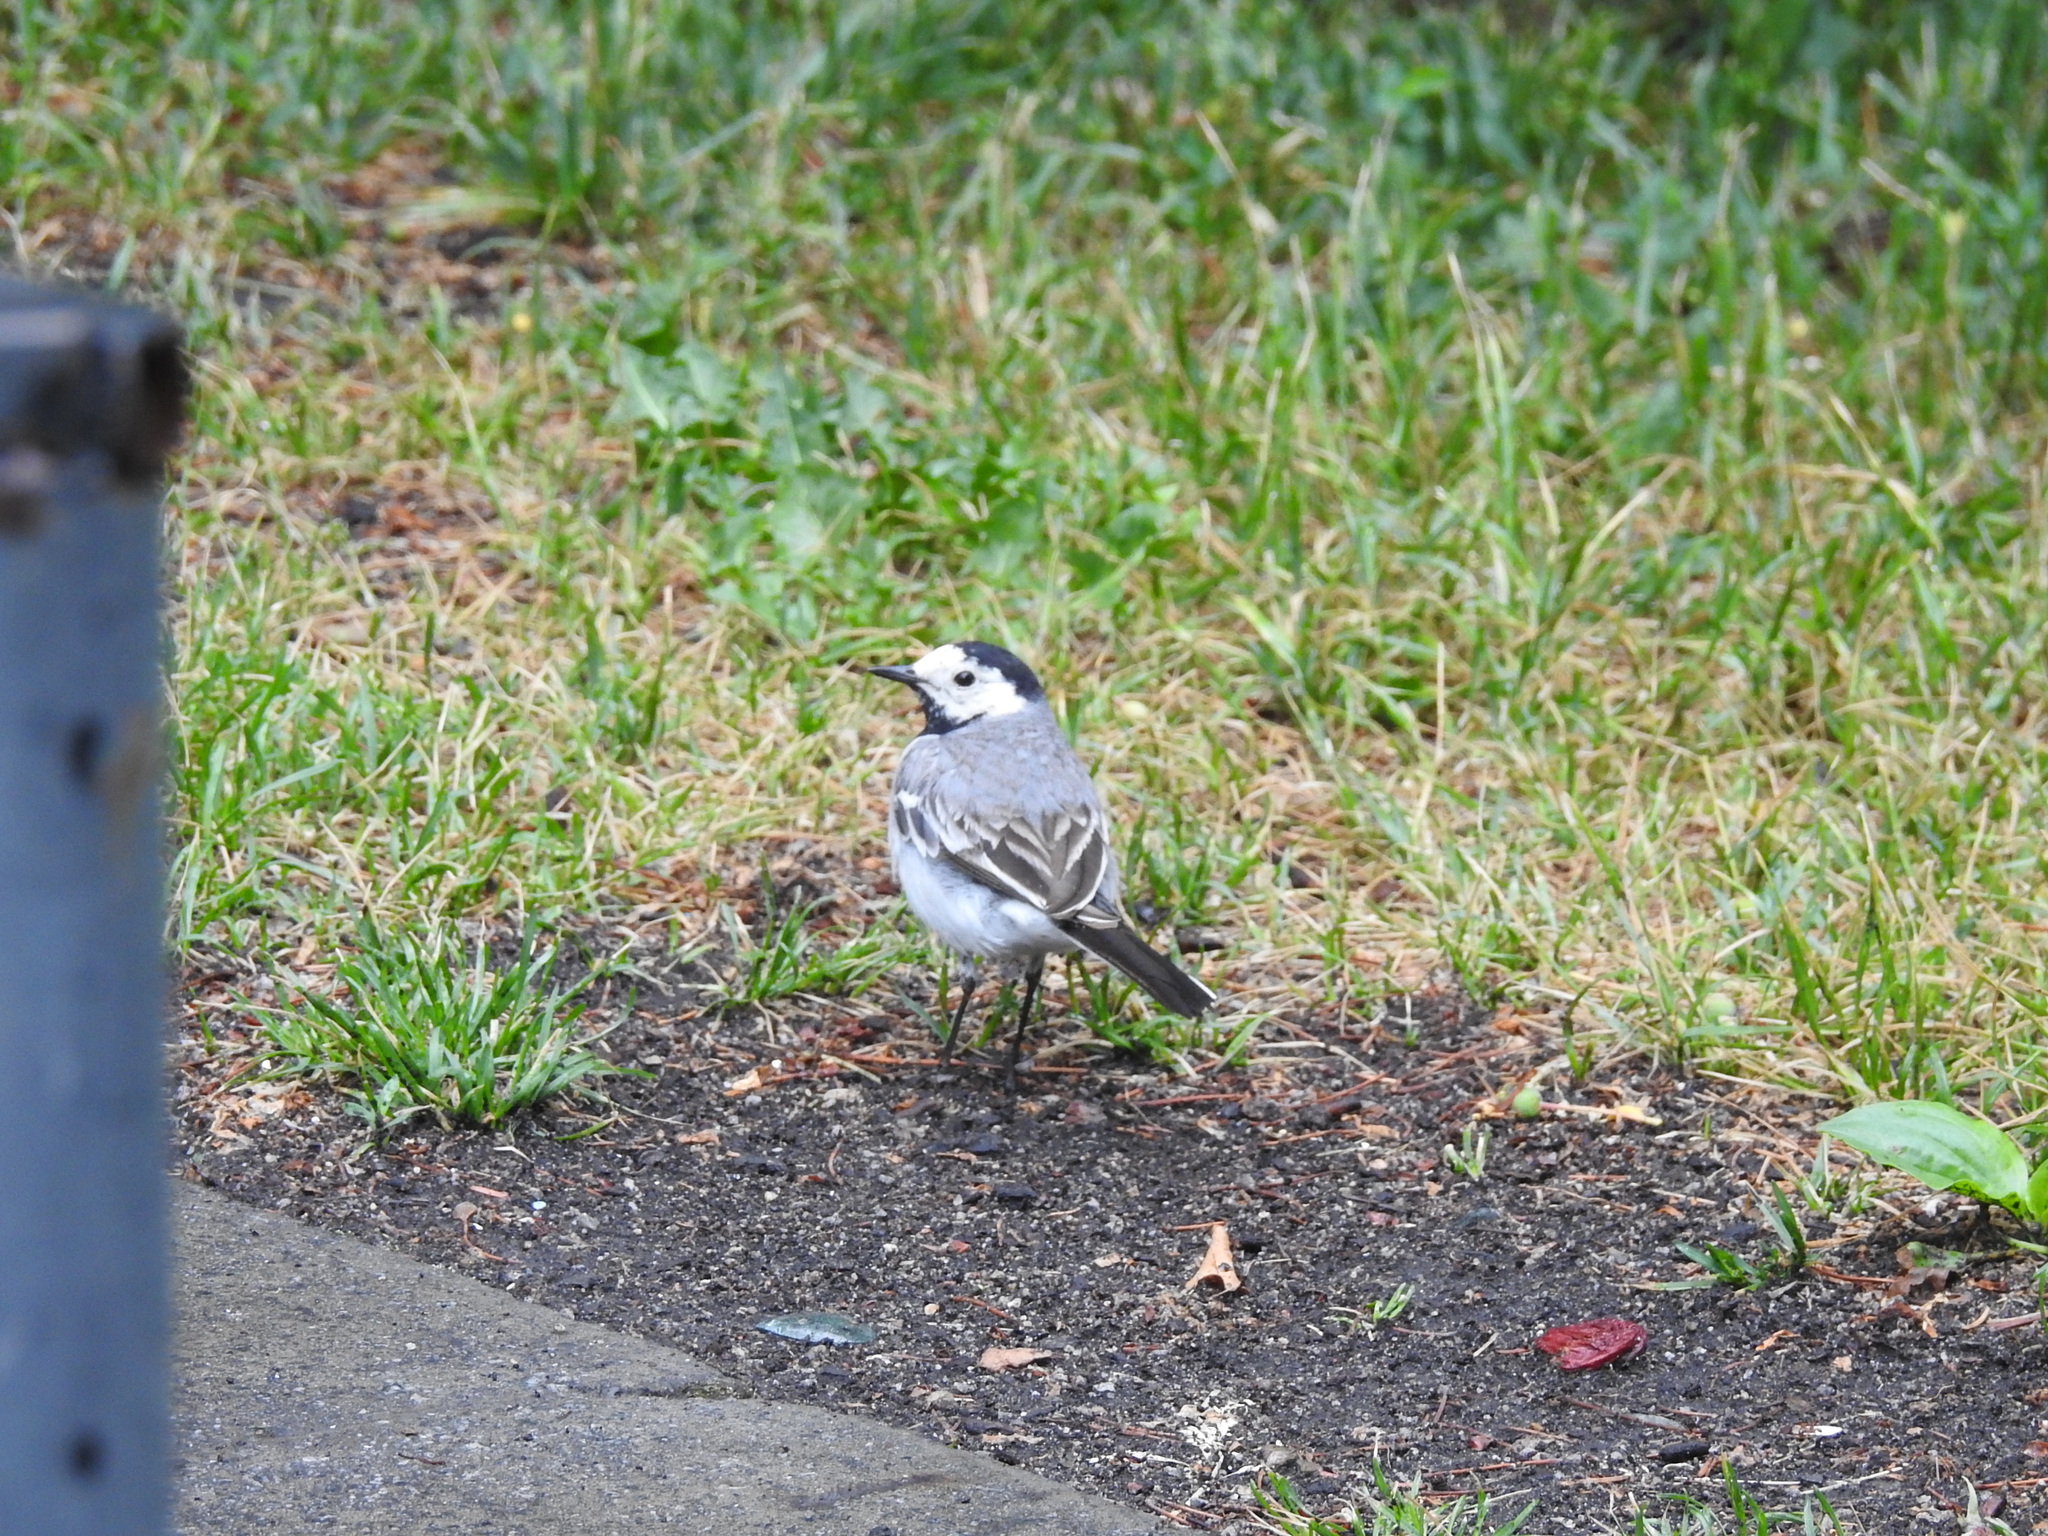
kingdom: Animalia
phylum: Chordata
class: Aves
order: Passeriformes
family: Motacillidae
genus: Motacilla
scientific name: Motacilla alba
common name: White wagtail
